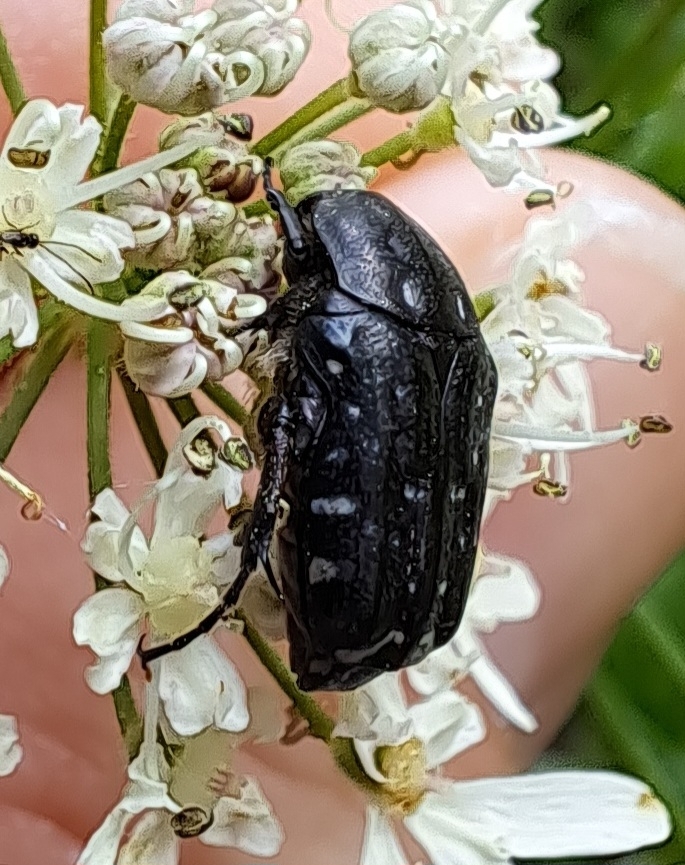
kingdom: Animalia
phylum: Arthropoda
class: Insecta
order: Coleoptera
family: Scarabaeidae
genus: Oxythyrea
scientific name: Oxythyrea funesta
